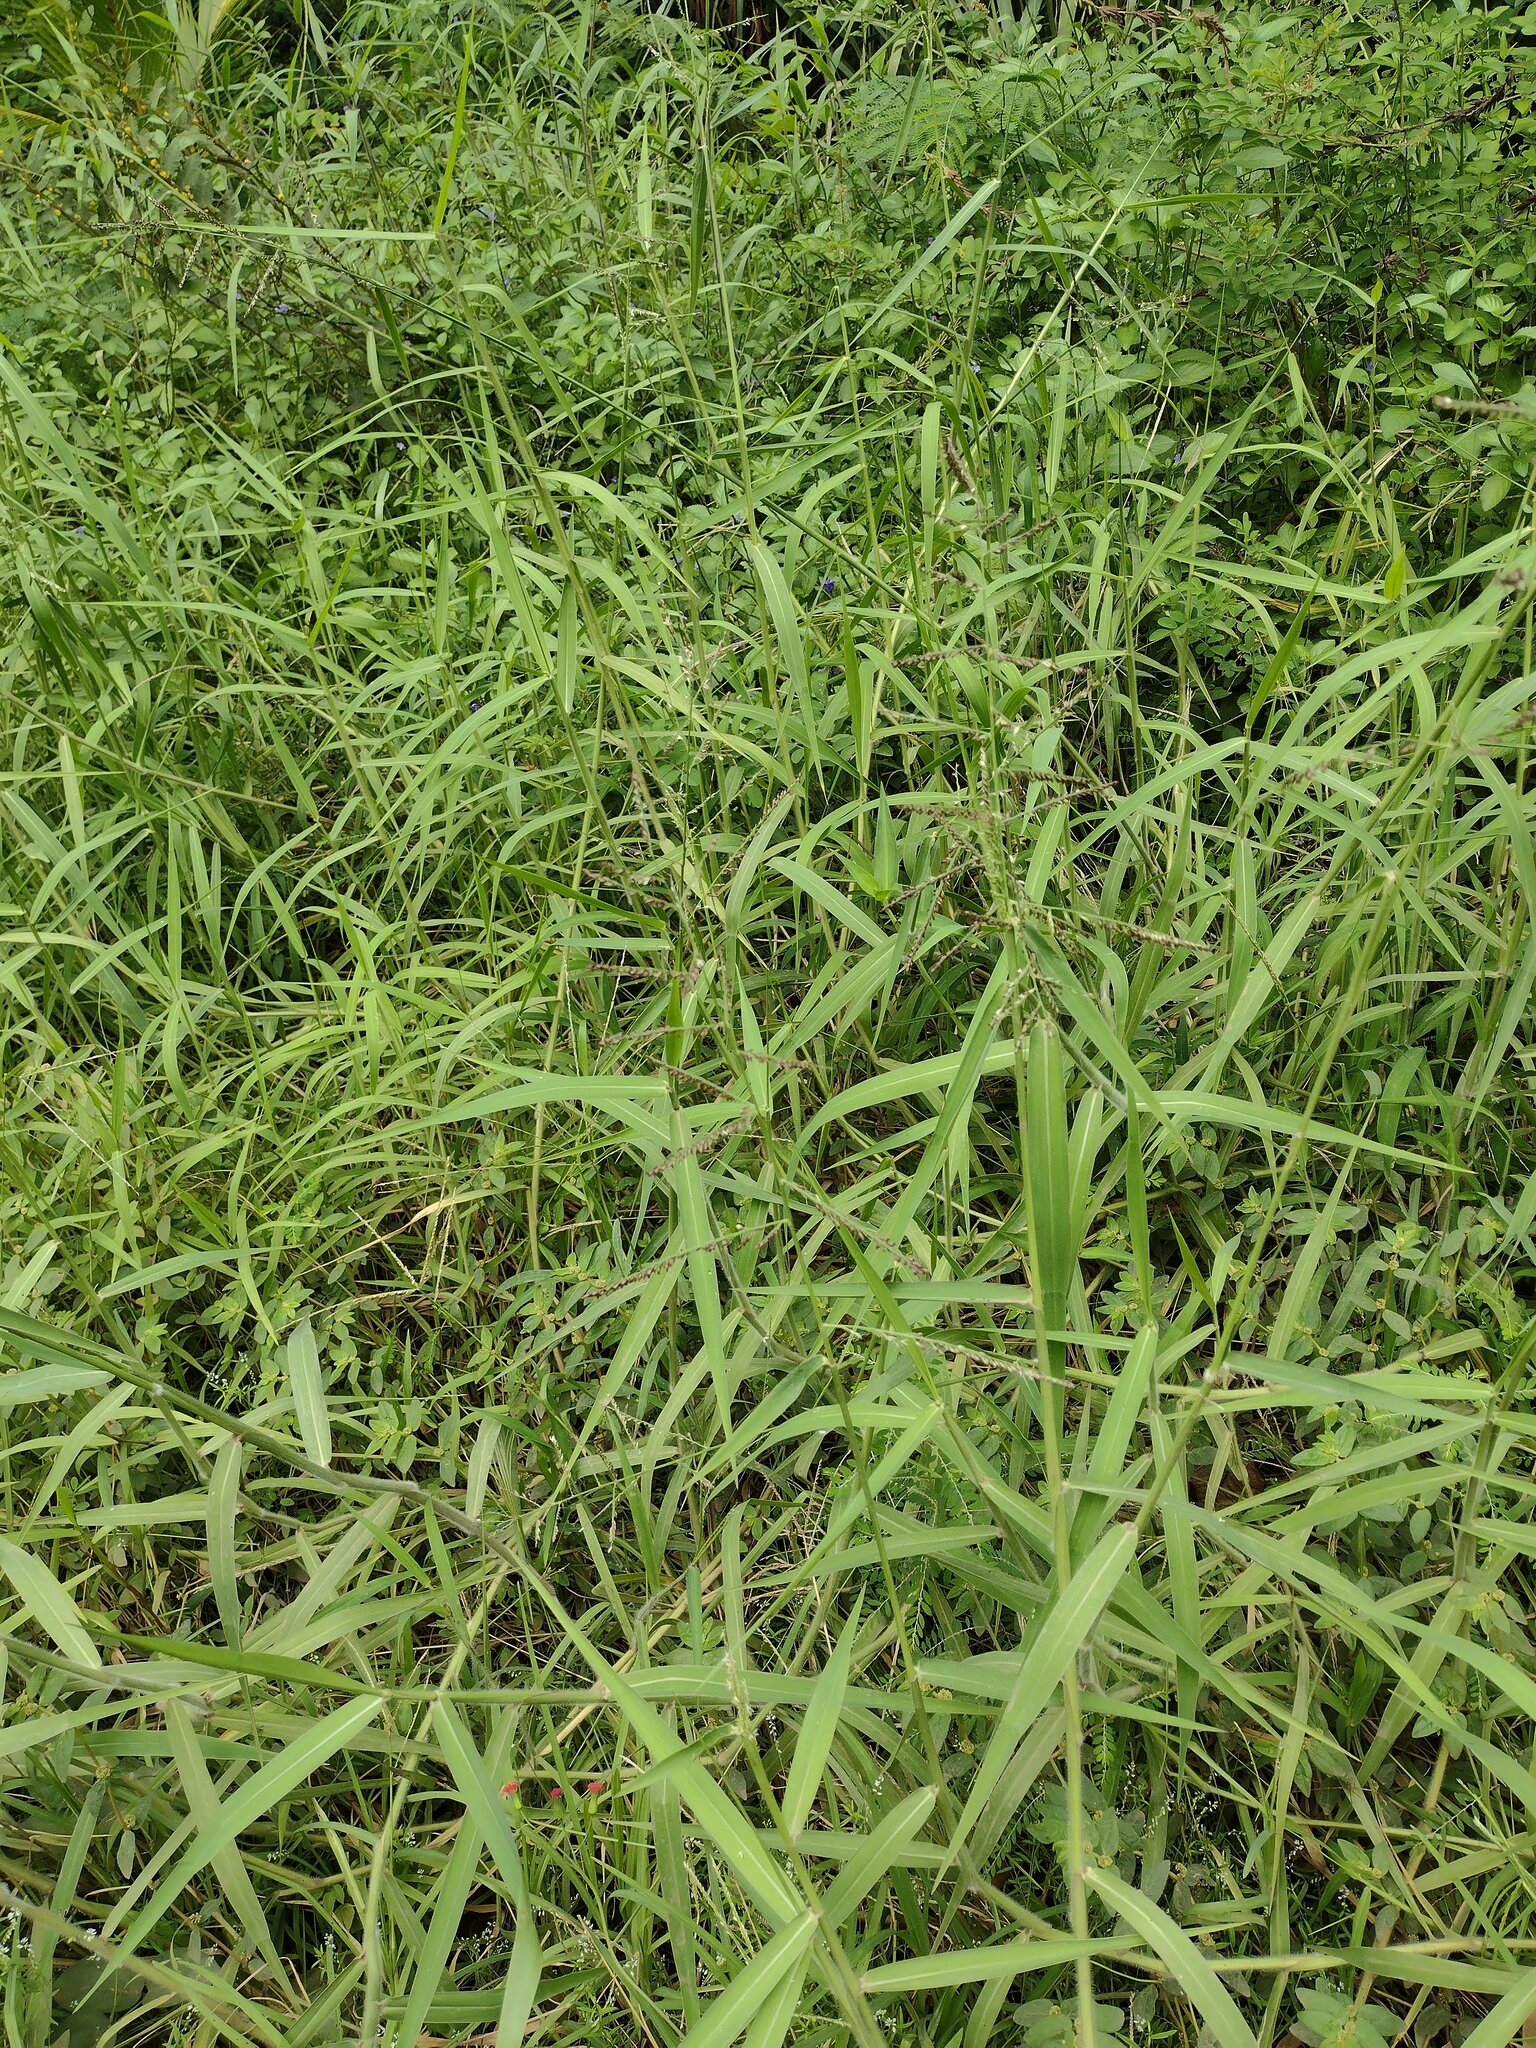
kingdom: Plantae
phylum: Tracheophyta
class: Liliopsida
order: Poales
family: Poaceae
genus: Urochloa
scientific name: Urochloa mutica
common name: Para grass
